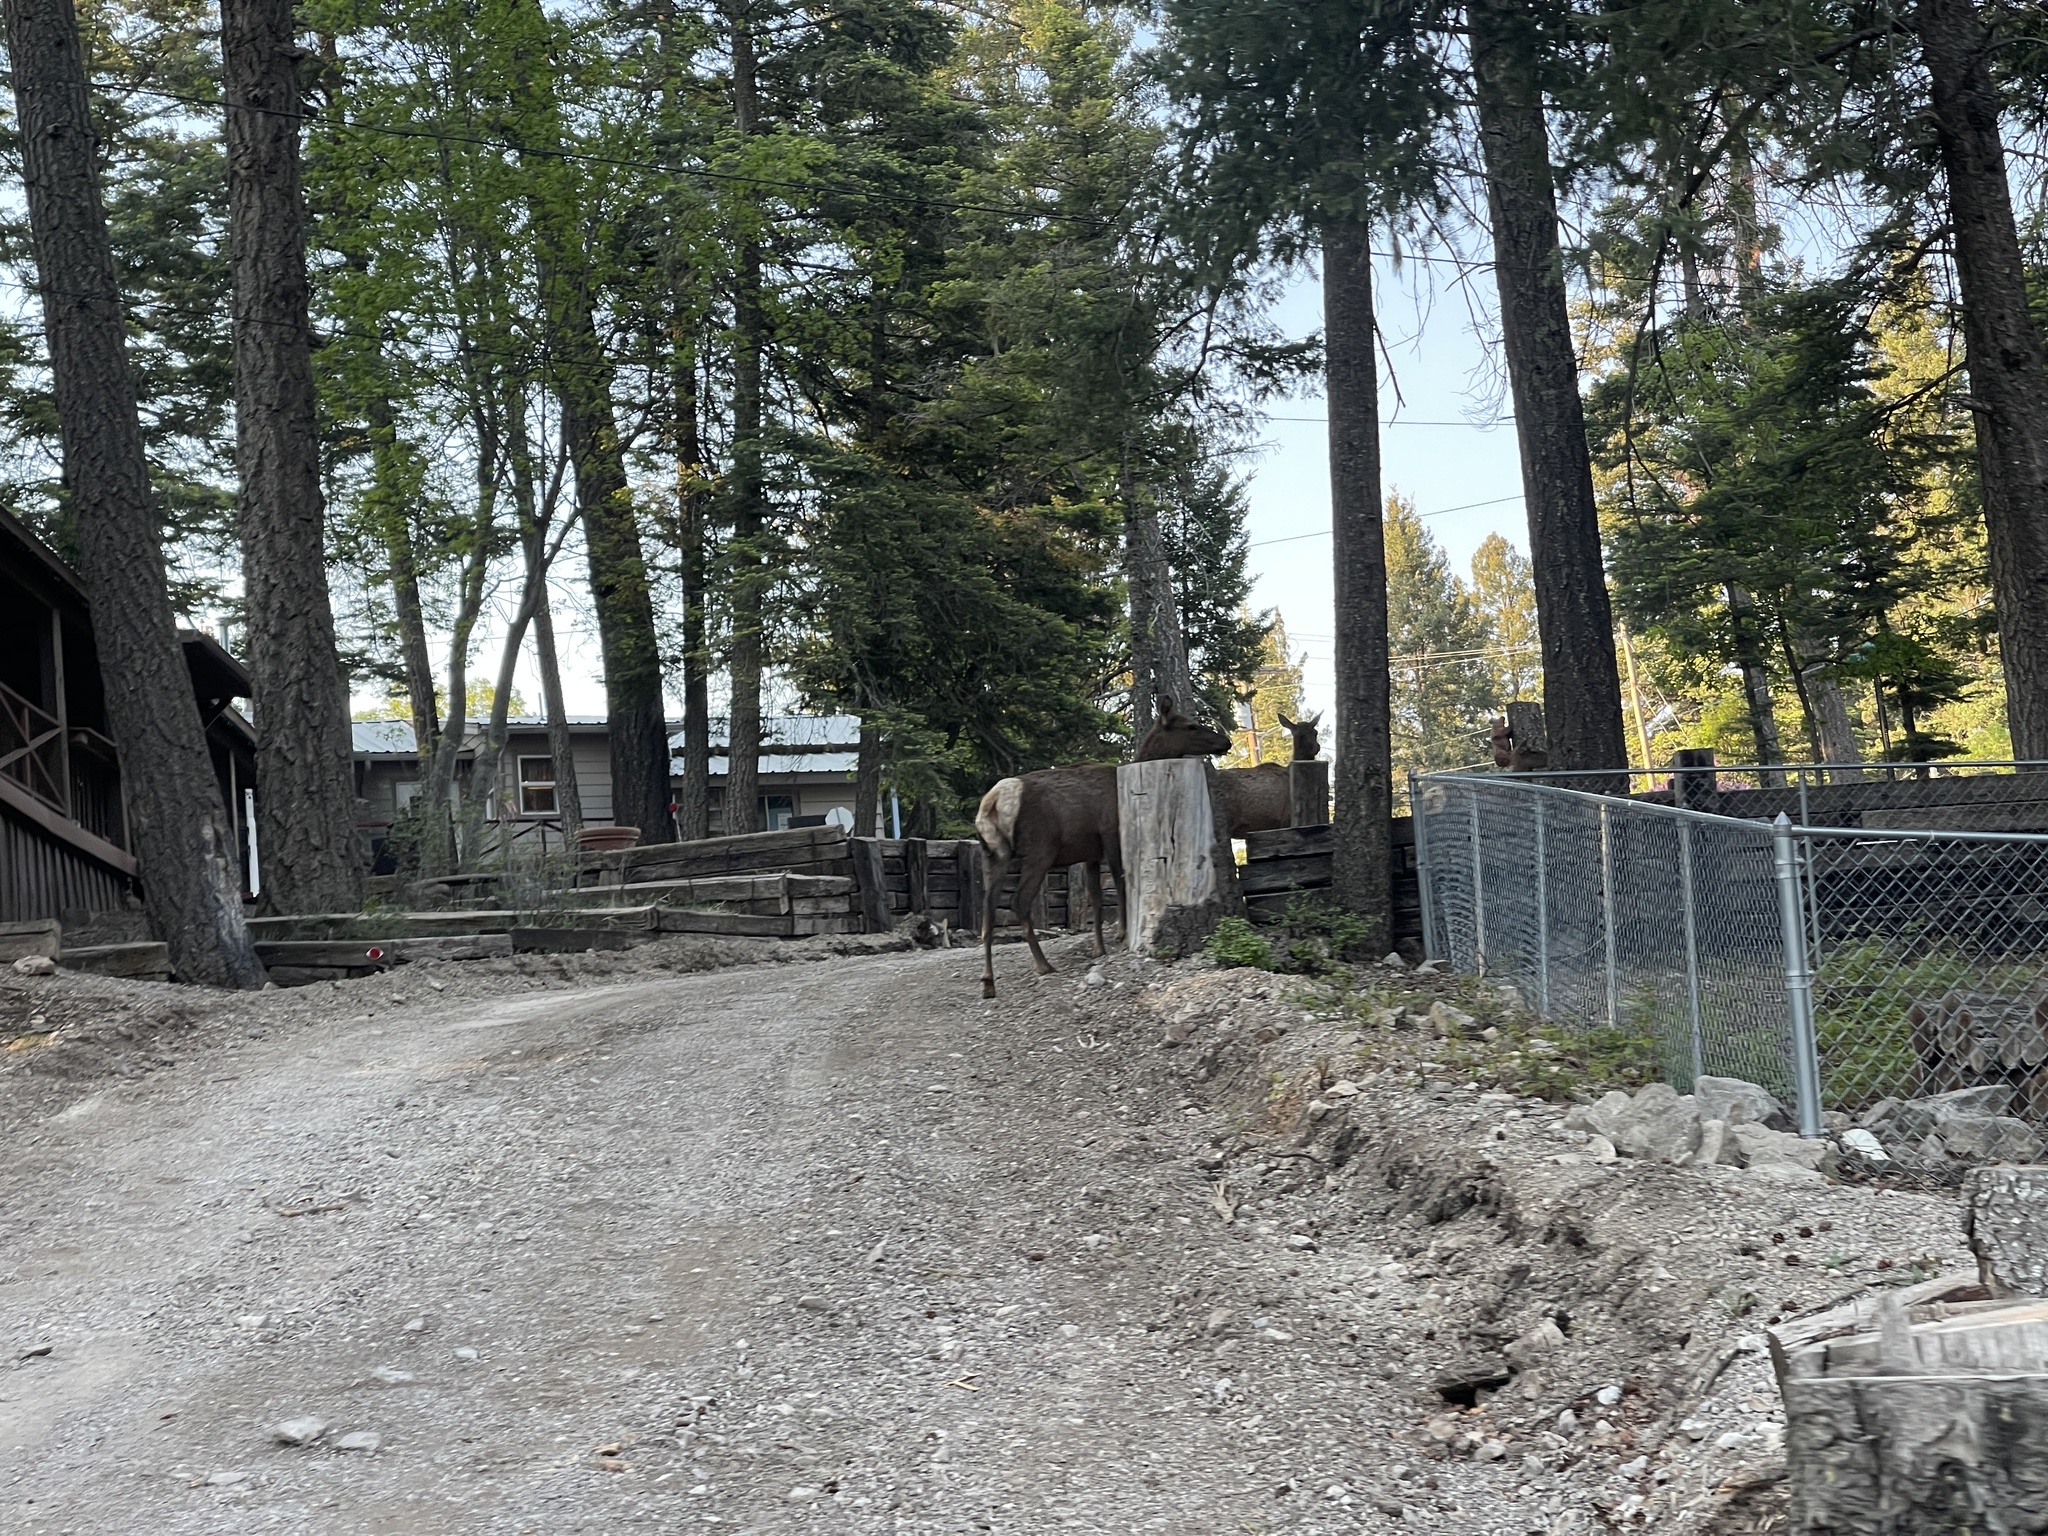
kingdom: Animalia
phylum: Chordata
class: Mammalia
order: Artiodactyla
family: Cervidae
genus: Cervus
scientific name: Cervus elaphus
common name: Red deer
